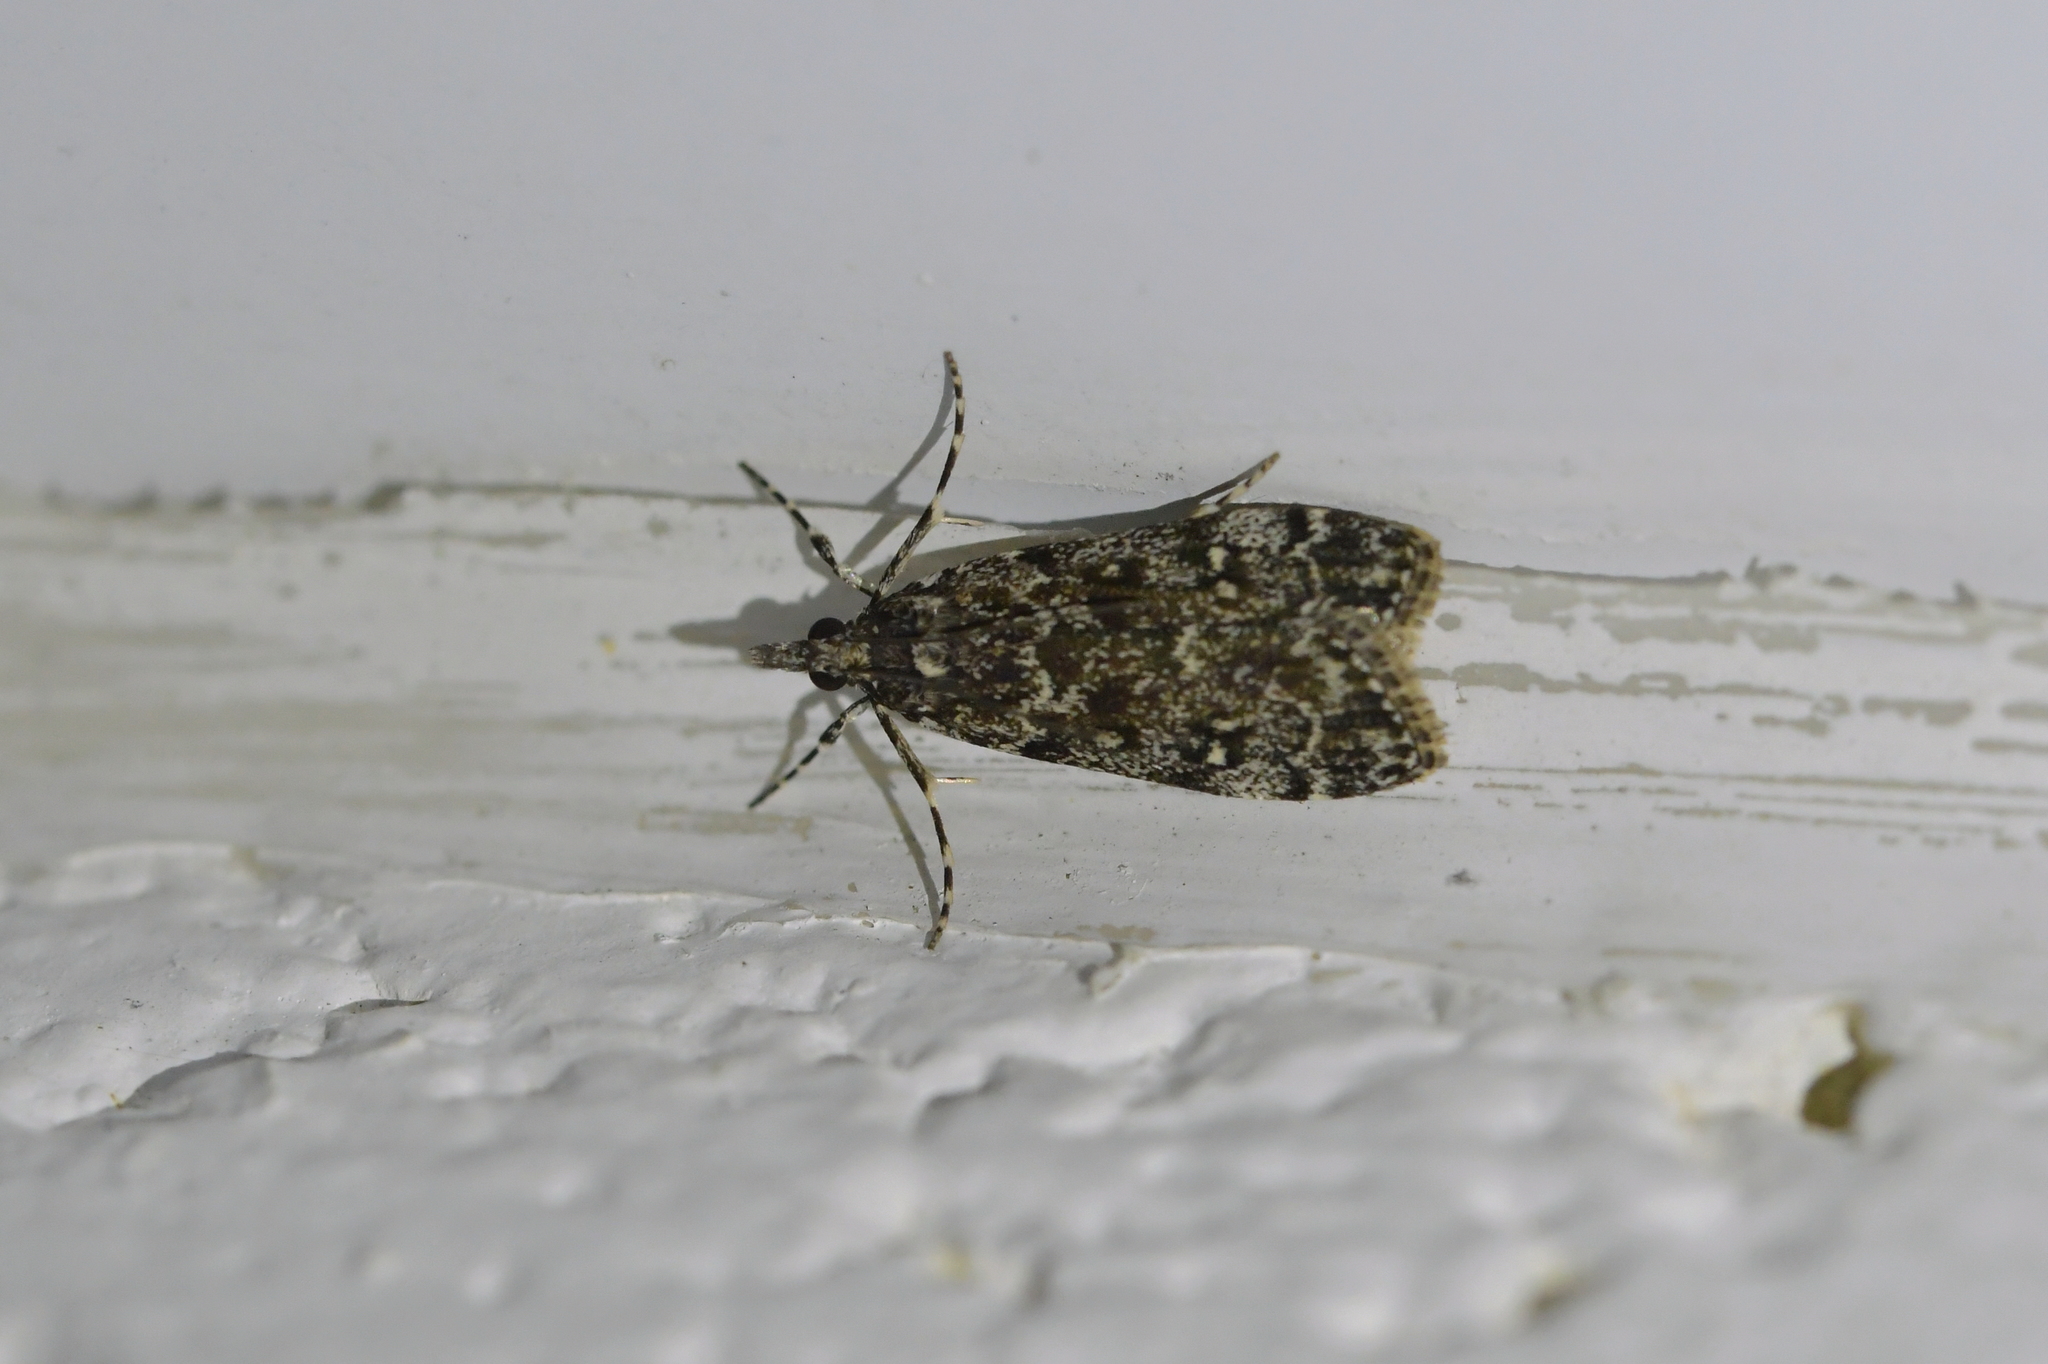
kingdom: Animalia
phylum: Arthropoda
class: Insecta
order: Lepidoptera
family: Crambidae
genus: Eudonia
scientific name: Eudonia philerga
